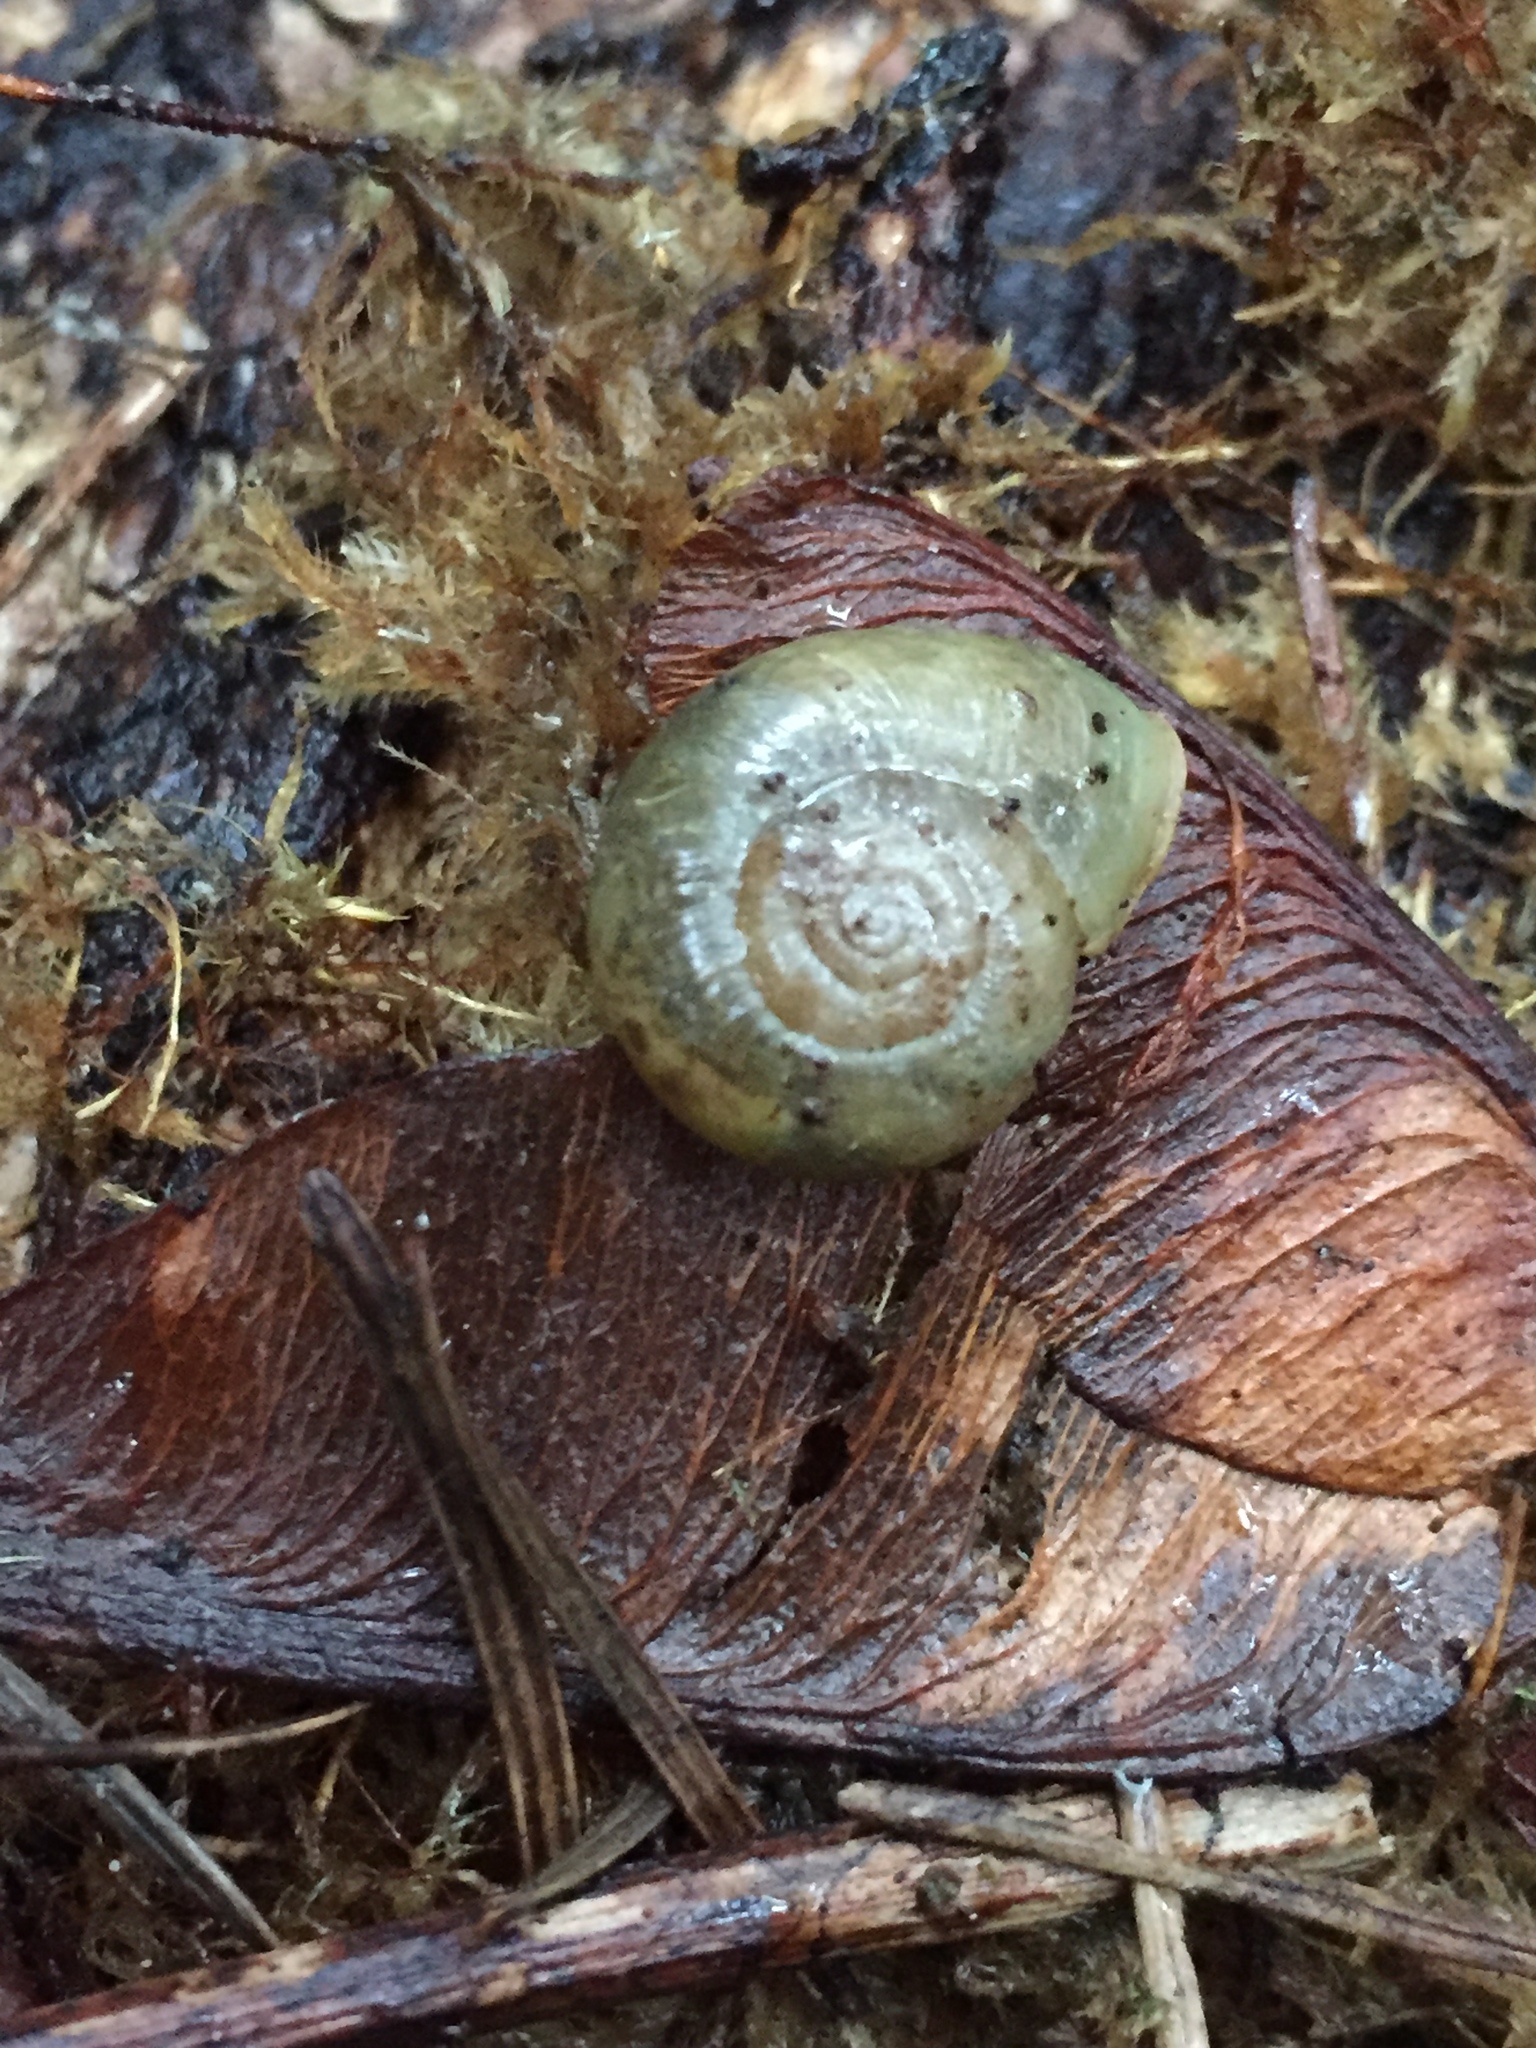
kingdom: Animalia
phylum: Mollusca
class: Gastropoda
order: Stylommatophora
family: Haplotrematidae
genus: Haplotrema
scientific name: Haplotrema vancouverense
